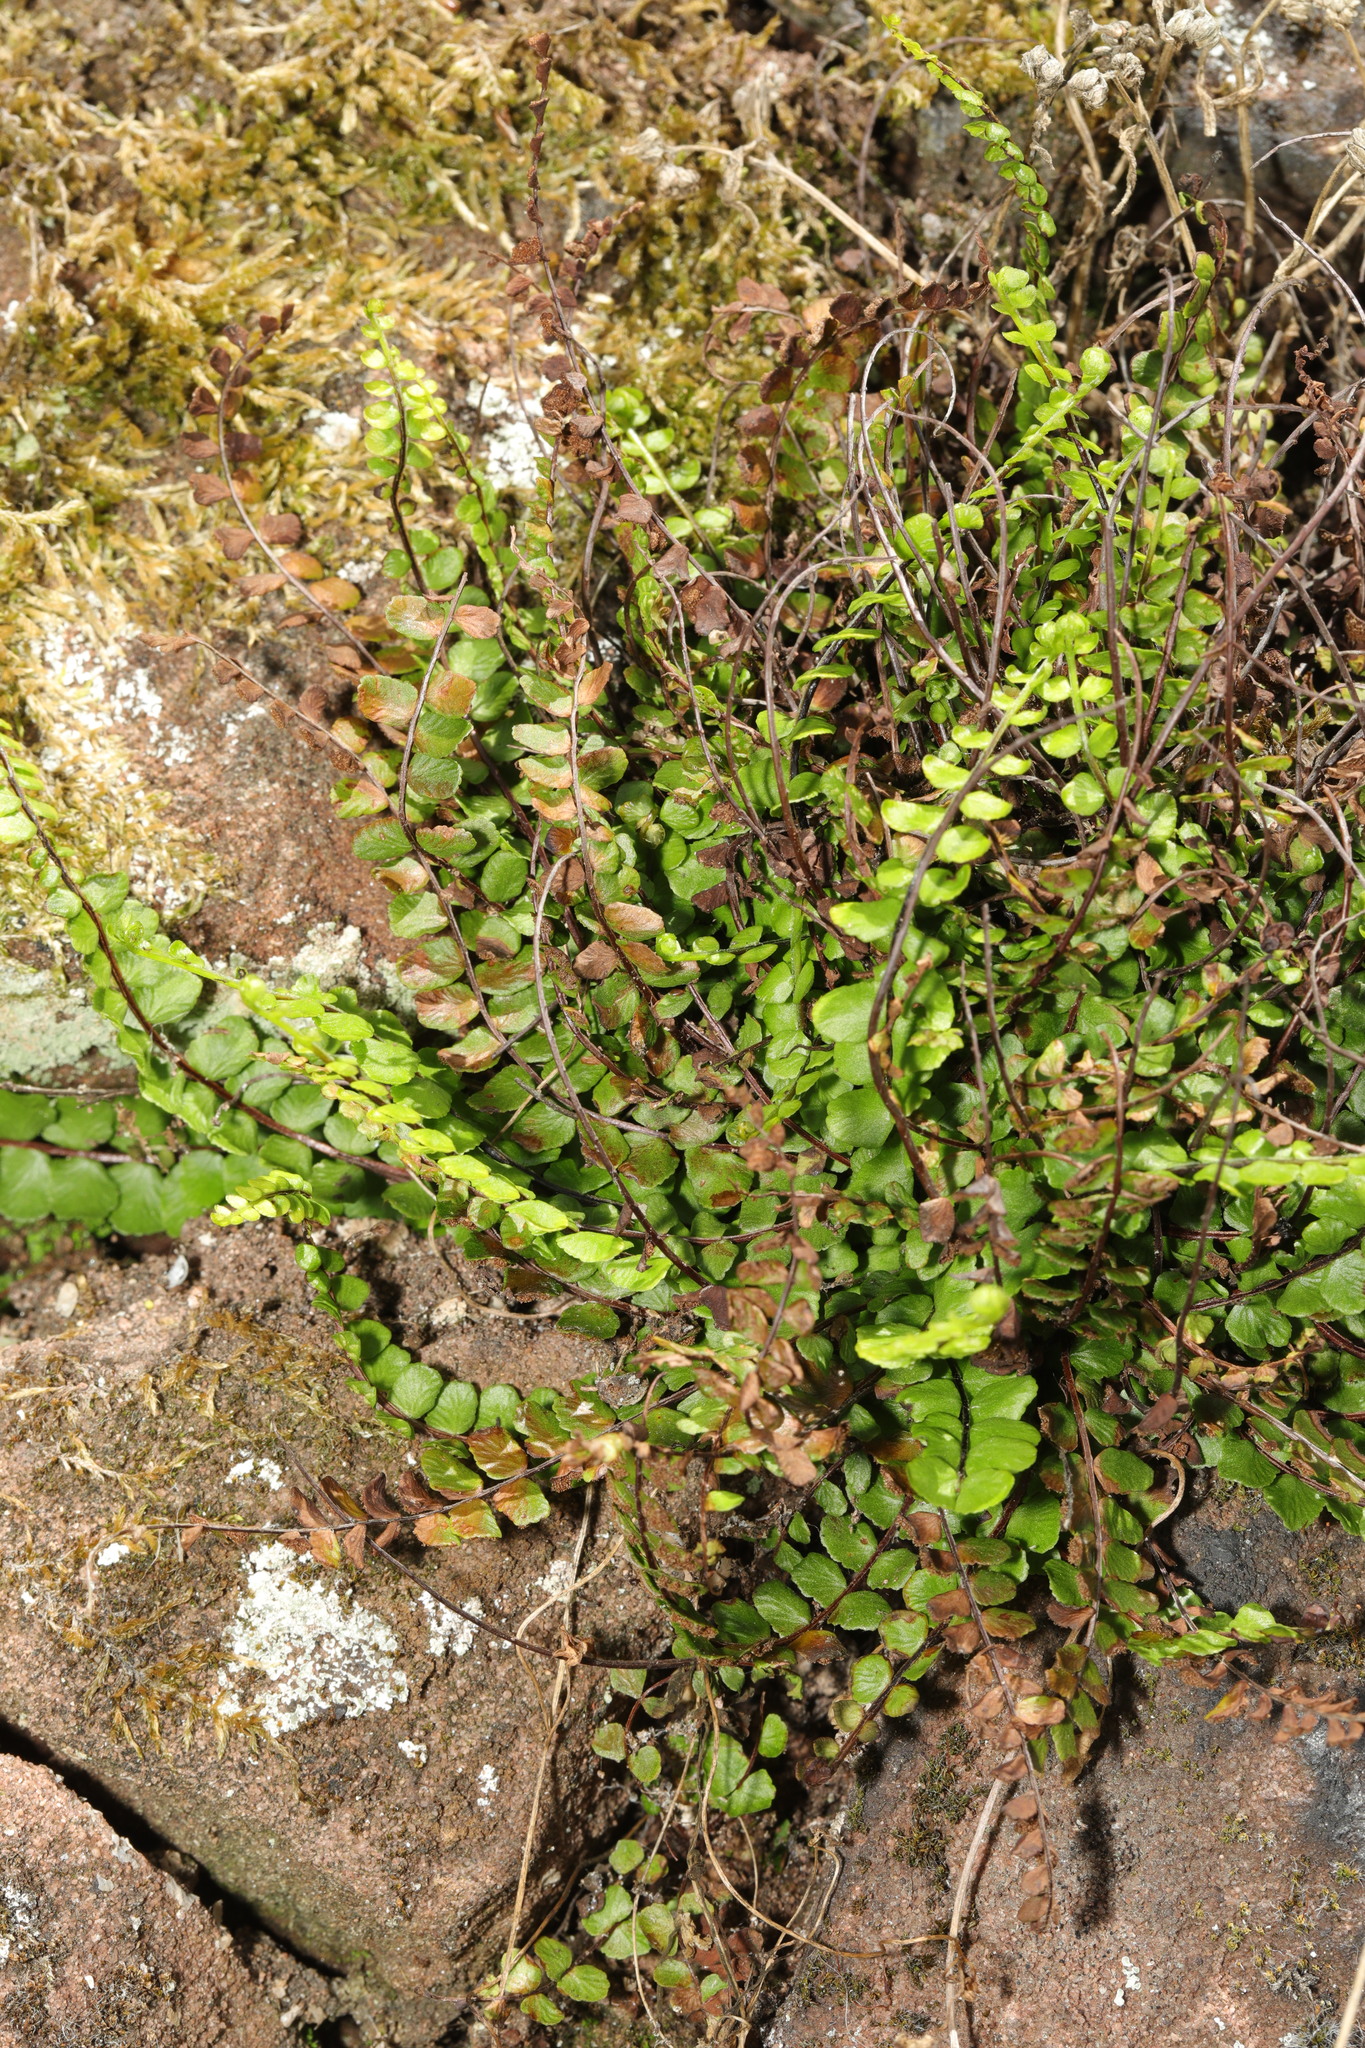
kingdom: Plantae
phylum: Tracheophyta
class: Polypodiopsida
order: Polypodiales
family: Aspleniaceae
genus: Asplenium
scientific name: Asplenium trichomanes
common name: Maidenhair spleenwort
